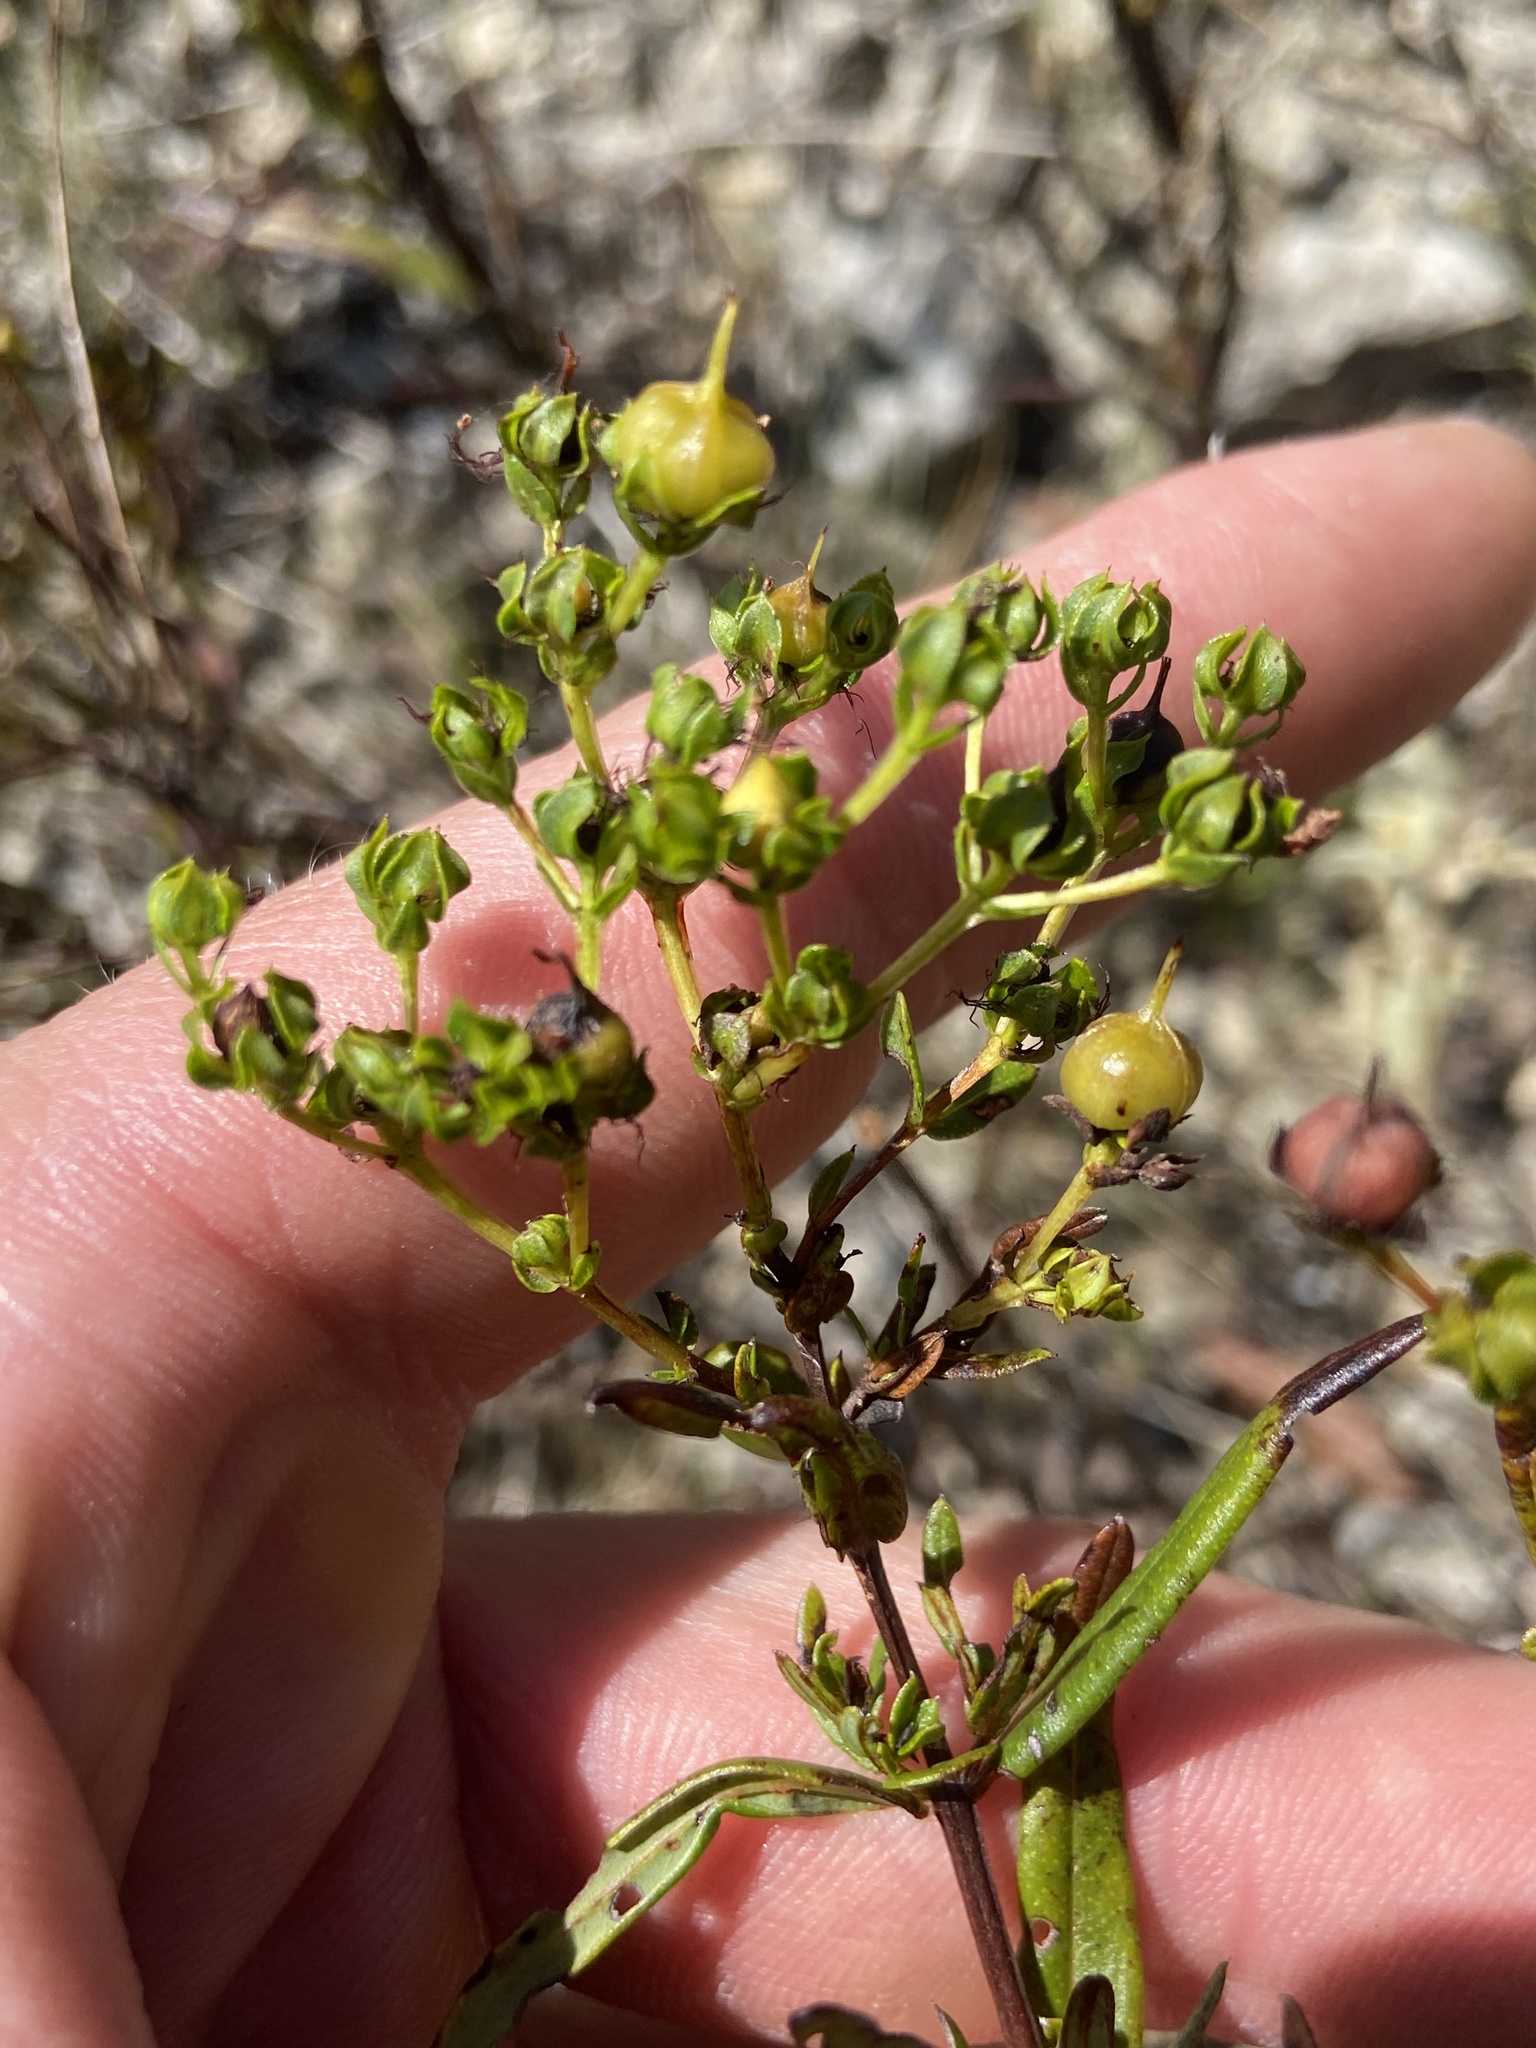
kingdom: Plantae
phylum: Tracheophyta
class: Magnoliopsida
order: Malpighiales
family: Hypericaceae
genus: Hypericum
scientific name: Hypericum sphaerocarpum
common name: Round-fruited st. john's-wort
